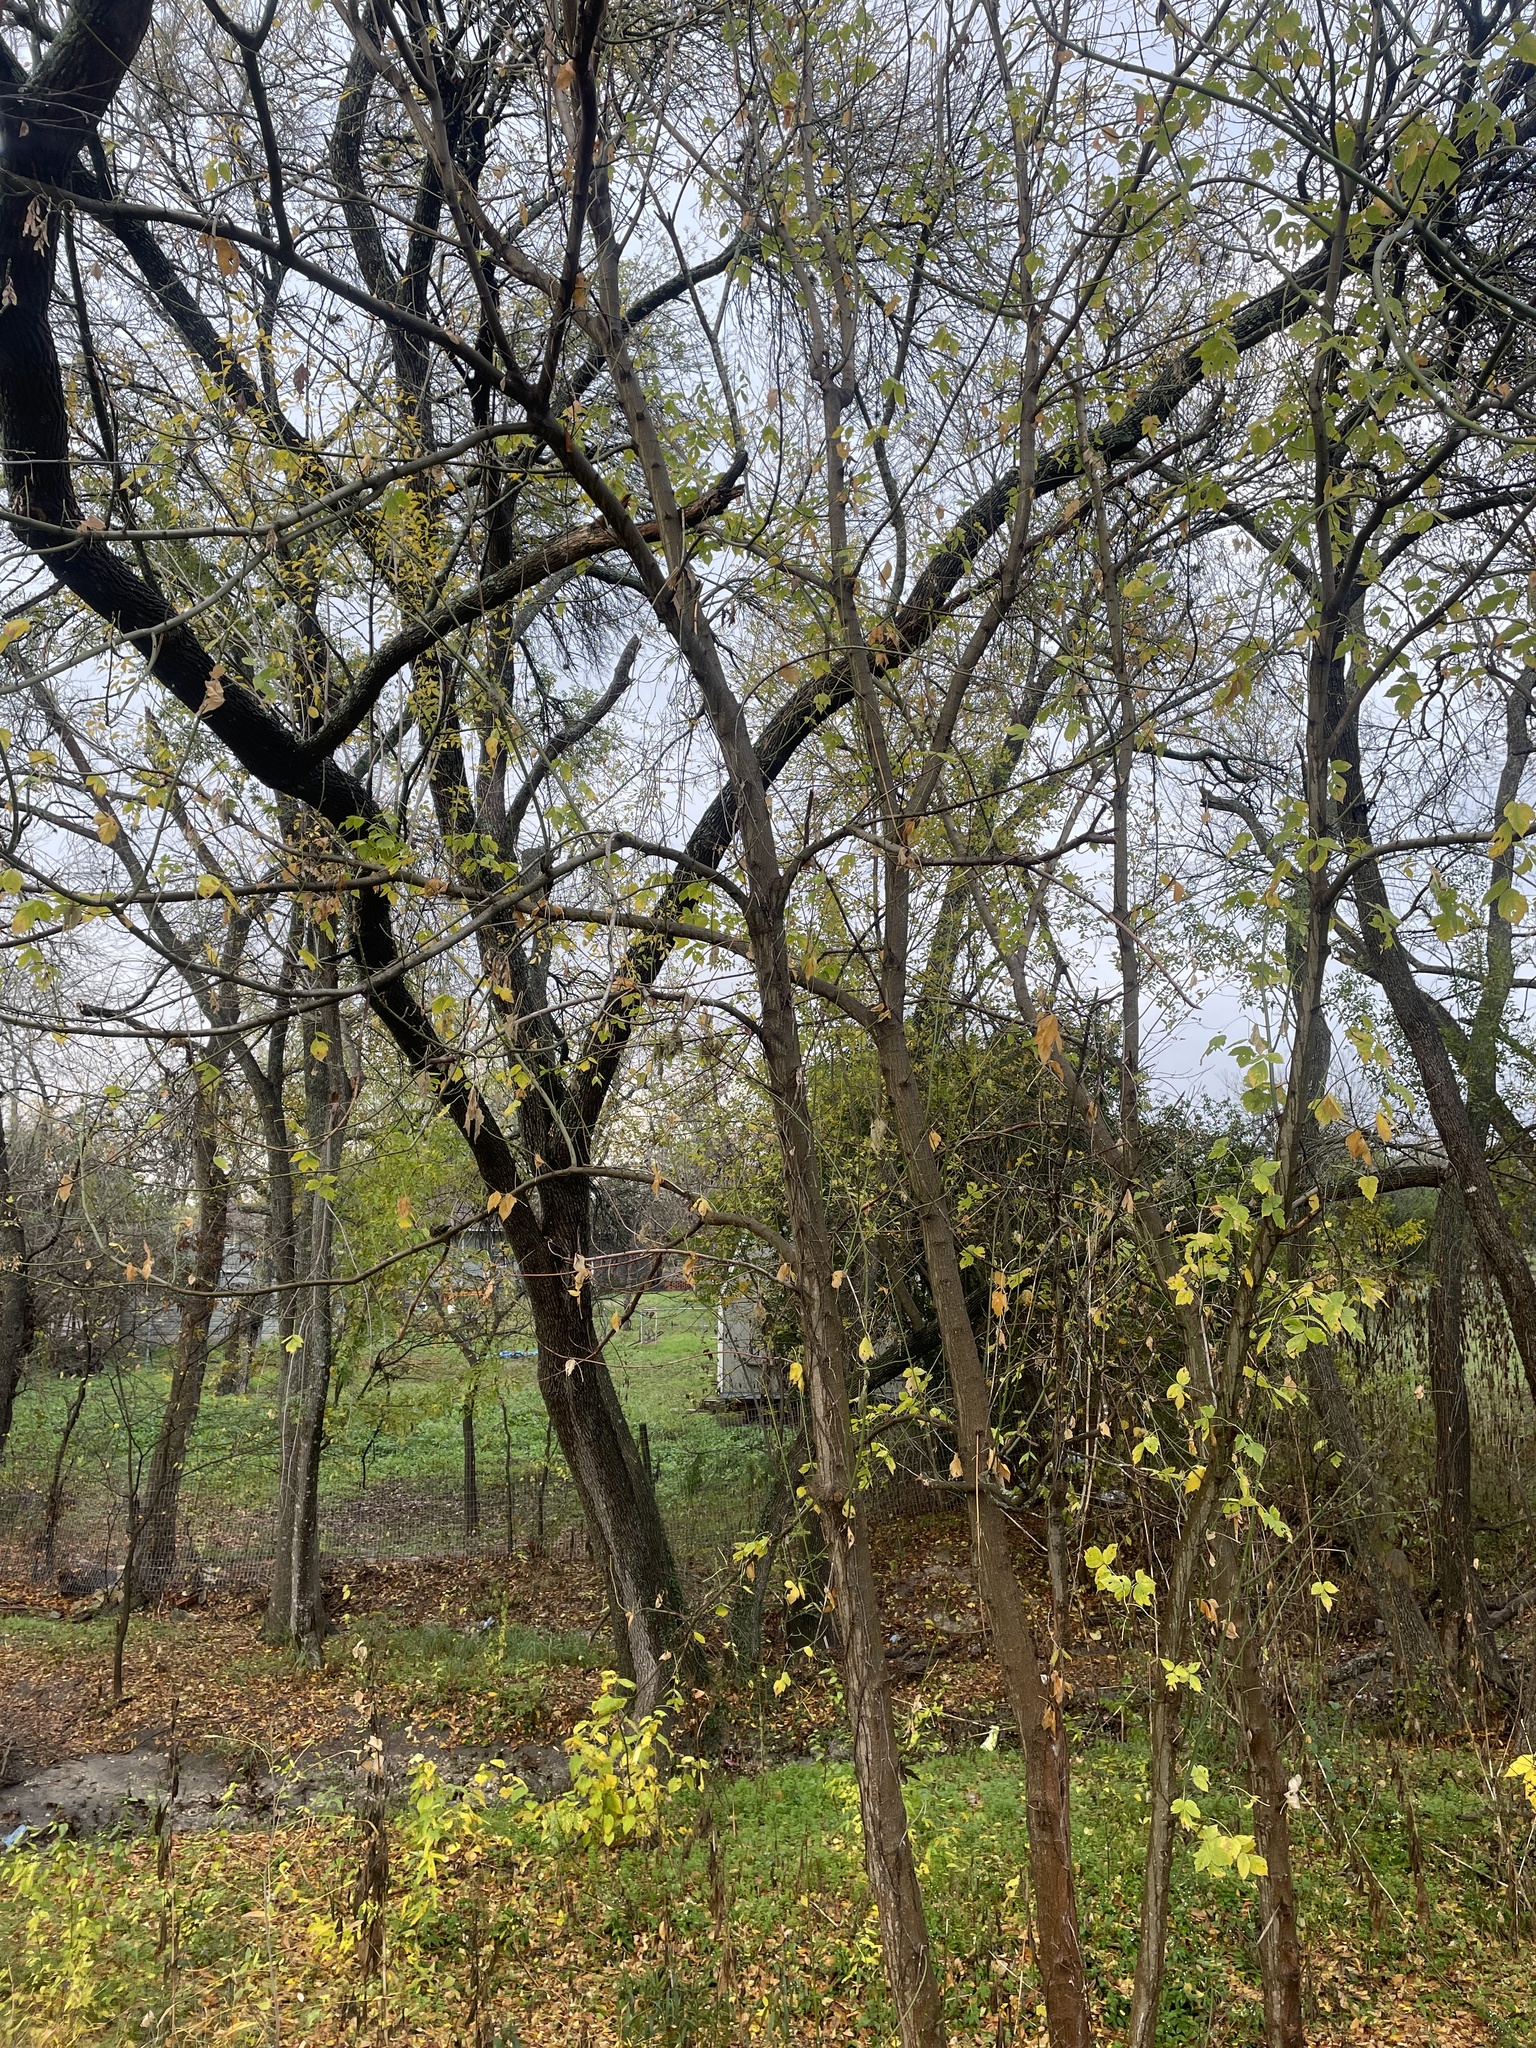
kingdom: Plantae
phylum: Tracheophyta
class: Magnoliopsida
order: Sapindales
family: Sapindaceae
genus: Acer
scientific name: Acer negundo
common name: Ashleaf maple
